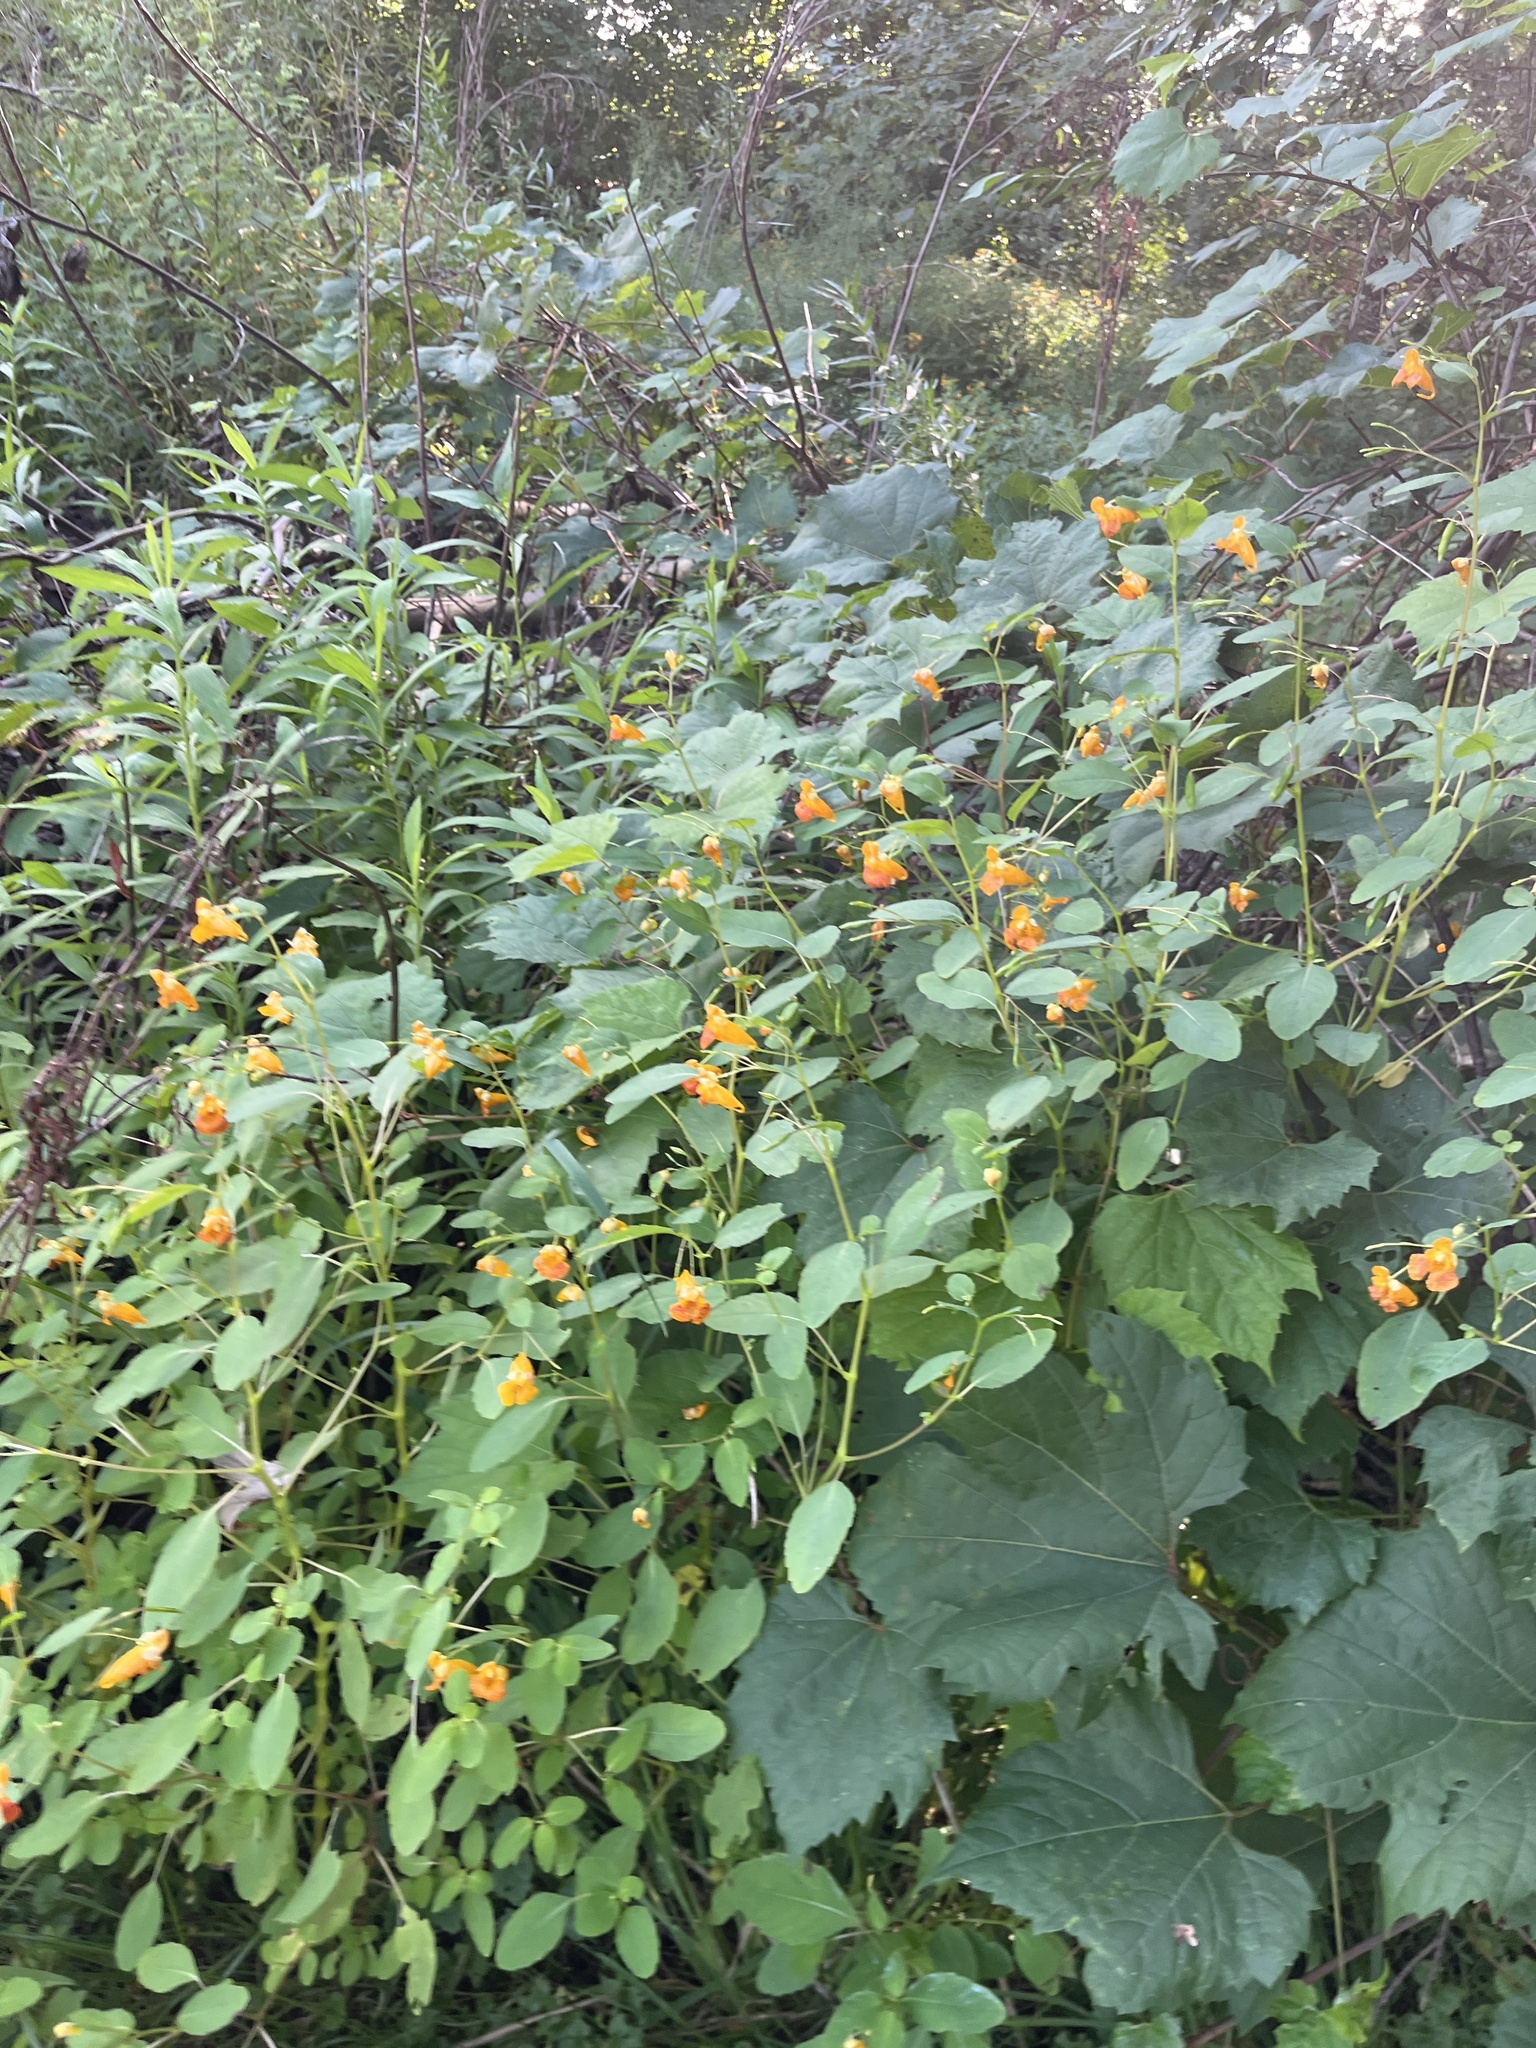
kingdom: Plantae
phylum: Tracheophyta
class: Magnoliopsida
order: Ericales
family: Balsaminaceae
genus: Impatiens
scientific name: Impatiens capensis
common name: Orange balsam
